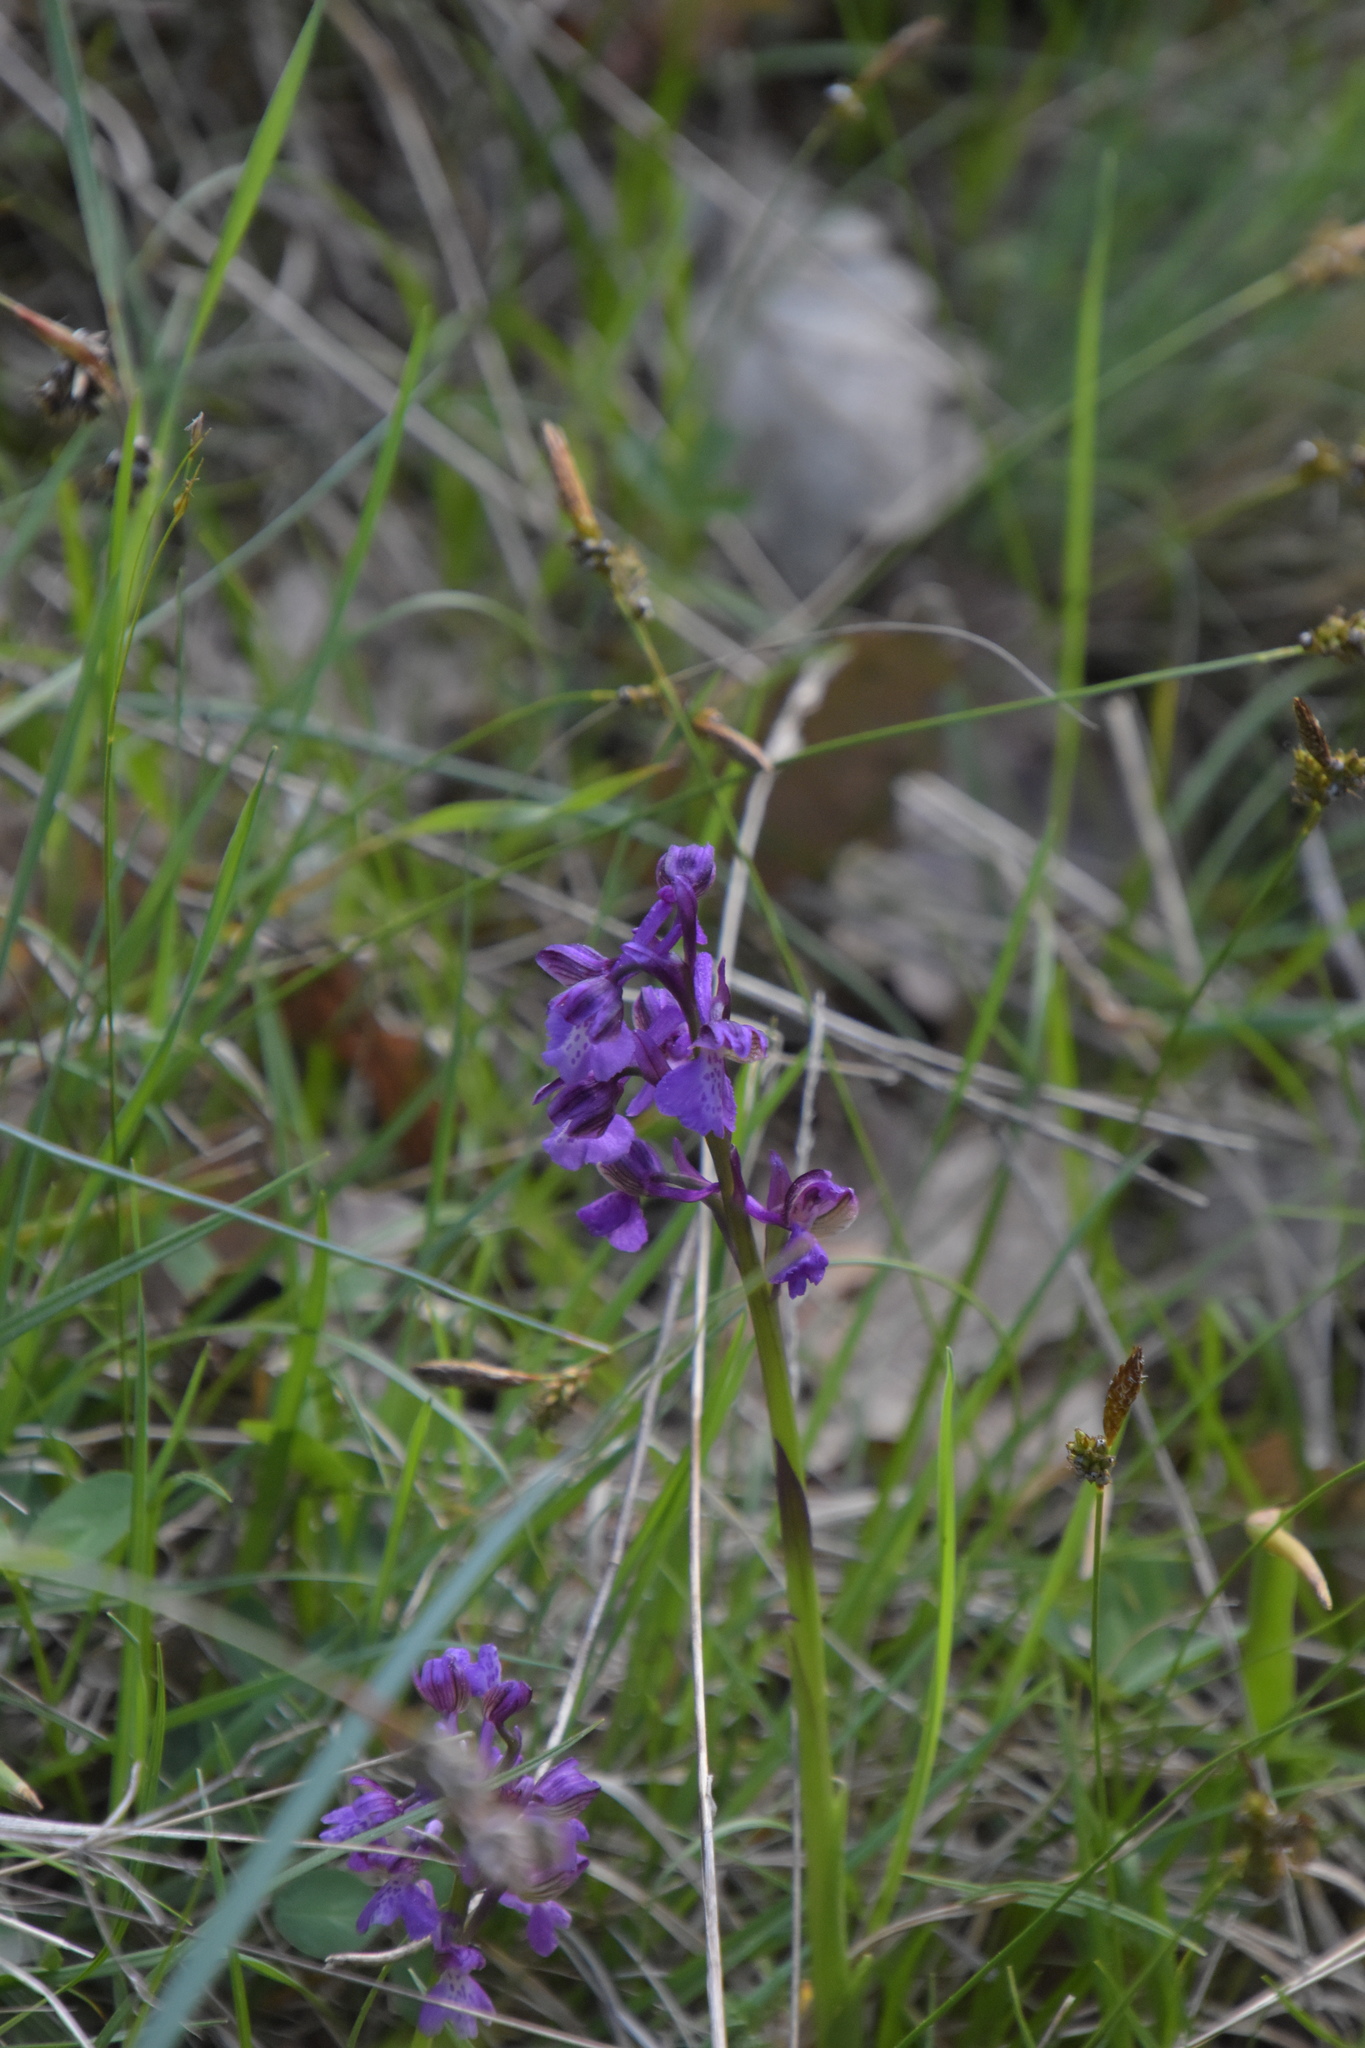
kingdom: Plantae
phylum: Tracheophyta
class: Liliopsida
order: Asparagales
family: Orchidaceae
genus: Anacamptis
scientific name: Anacamptis morio
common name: Green-winged orchid
